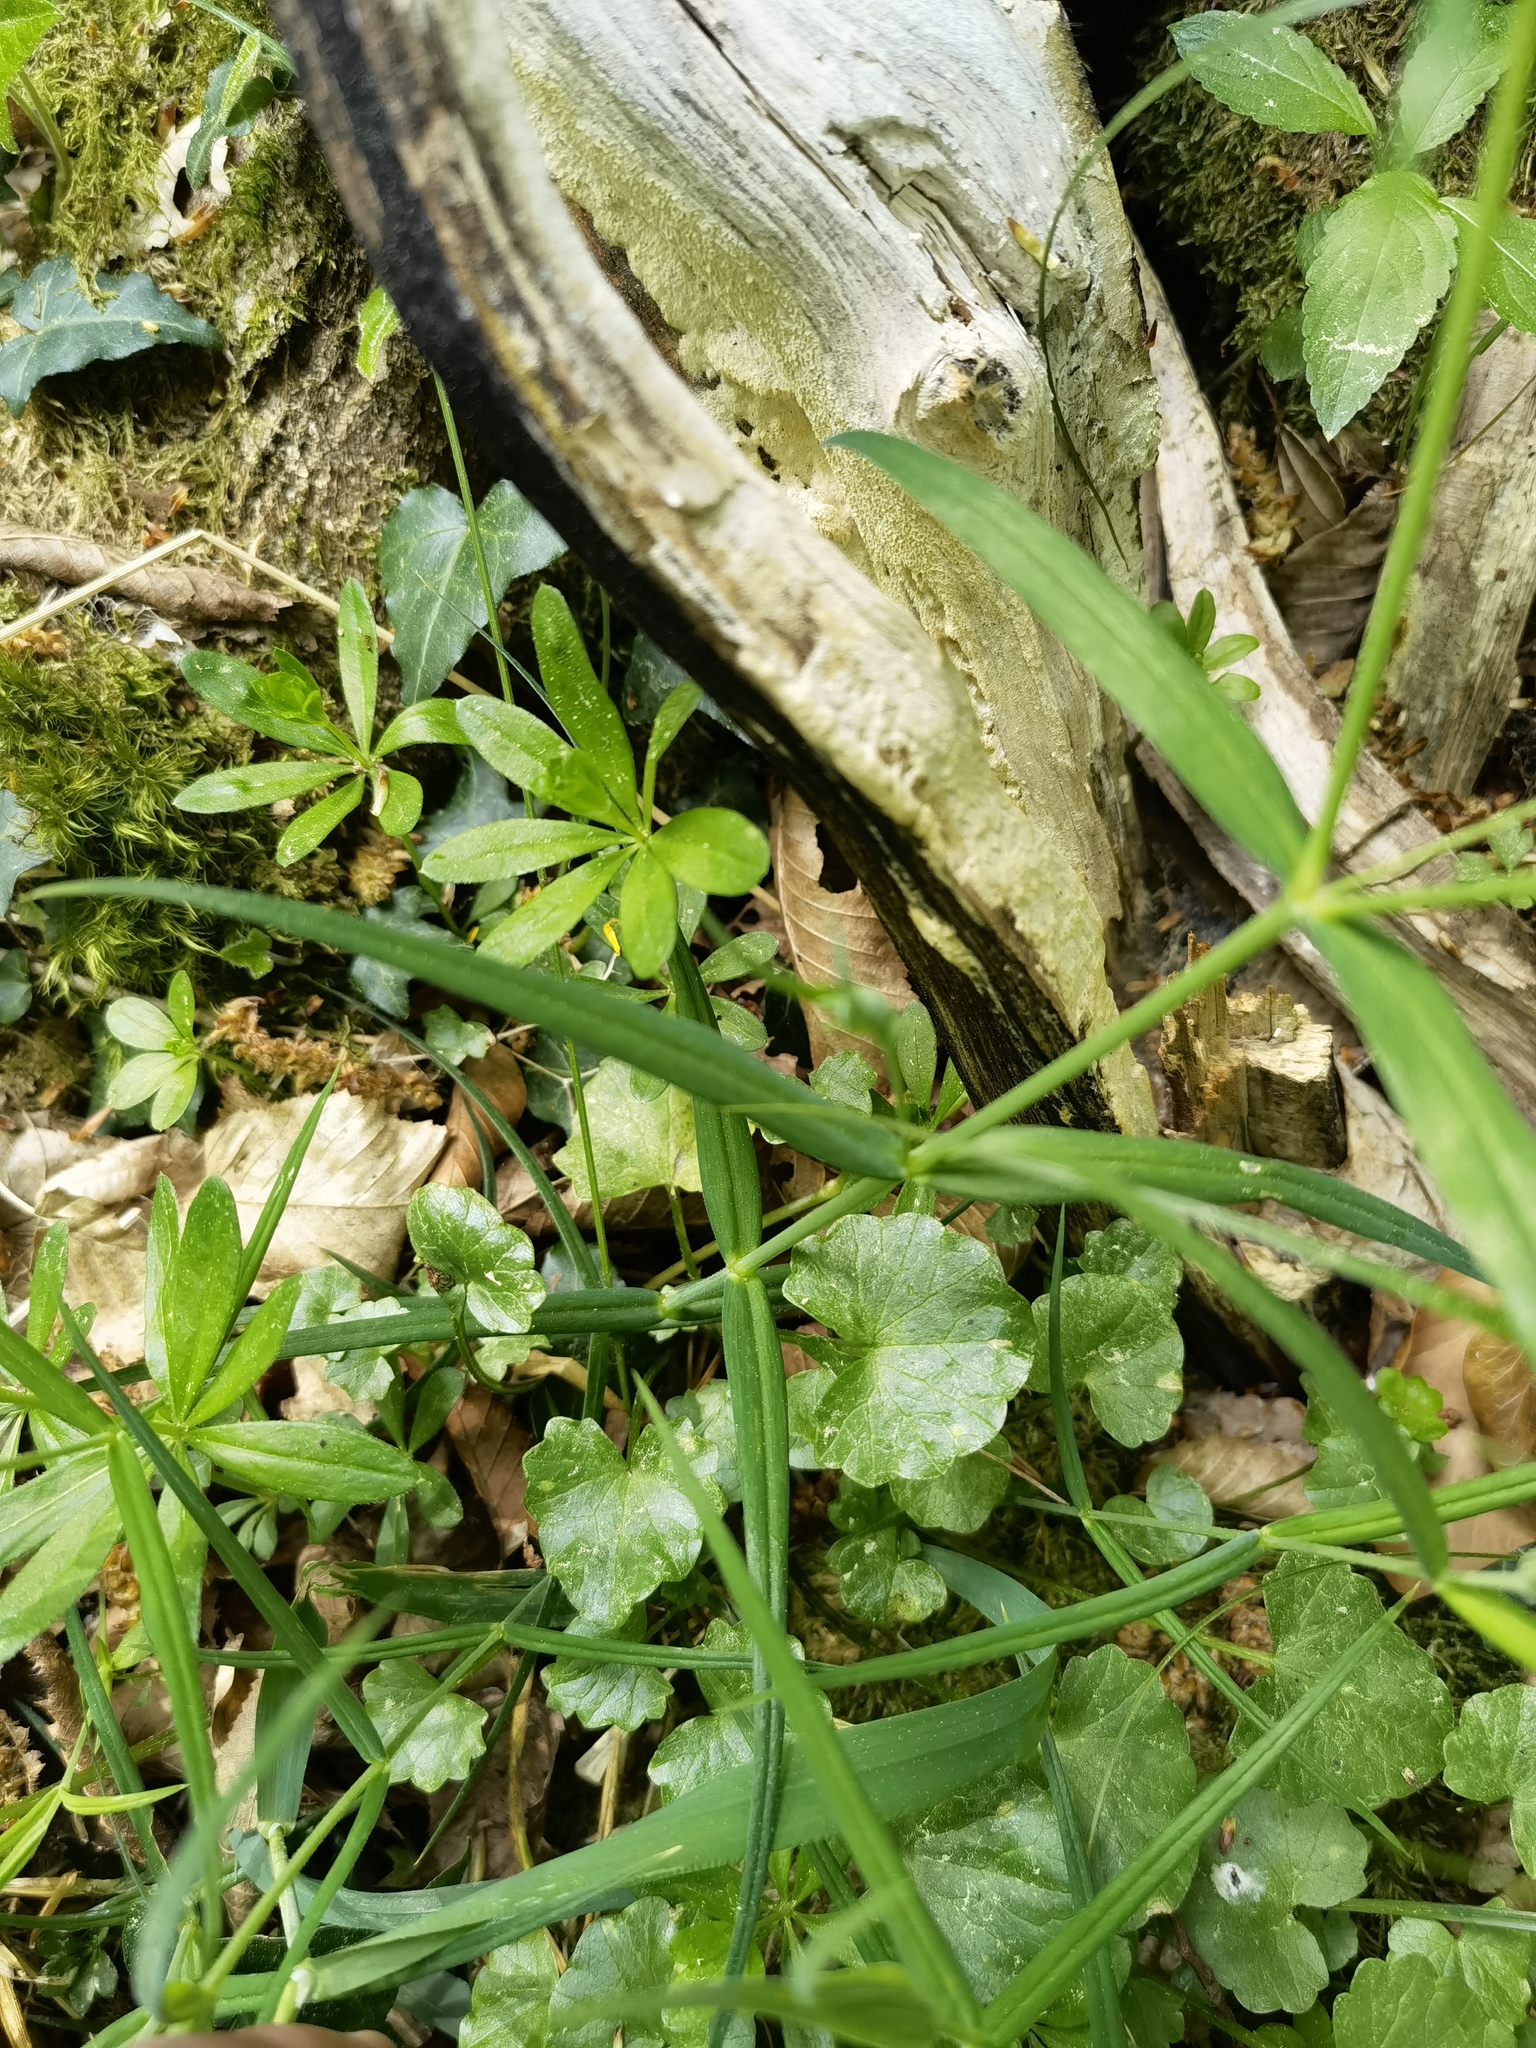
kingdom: Plantae
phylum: Tracheophyta
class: Magnoliopsida
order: Caryophyllales
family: Caryophyllaceae
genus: Rabelera
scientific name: Rabelera holostea
